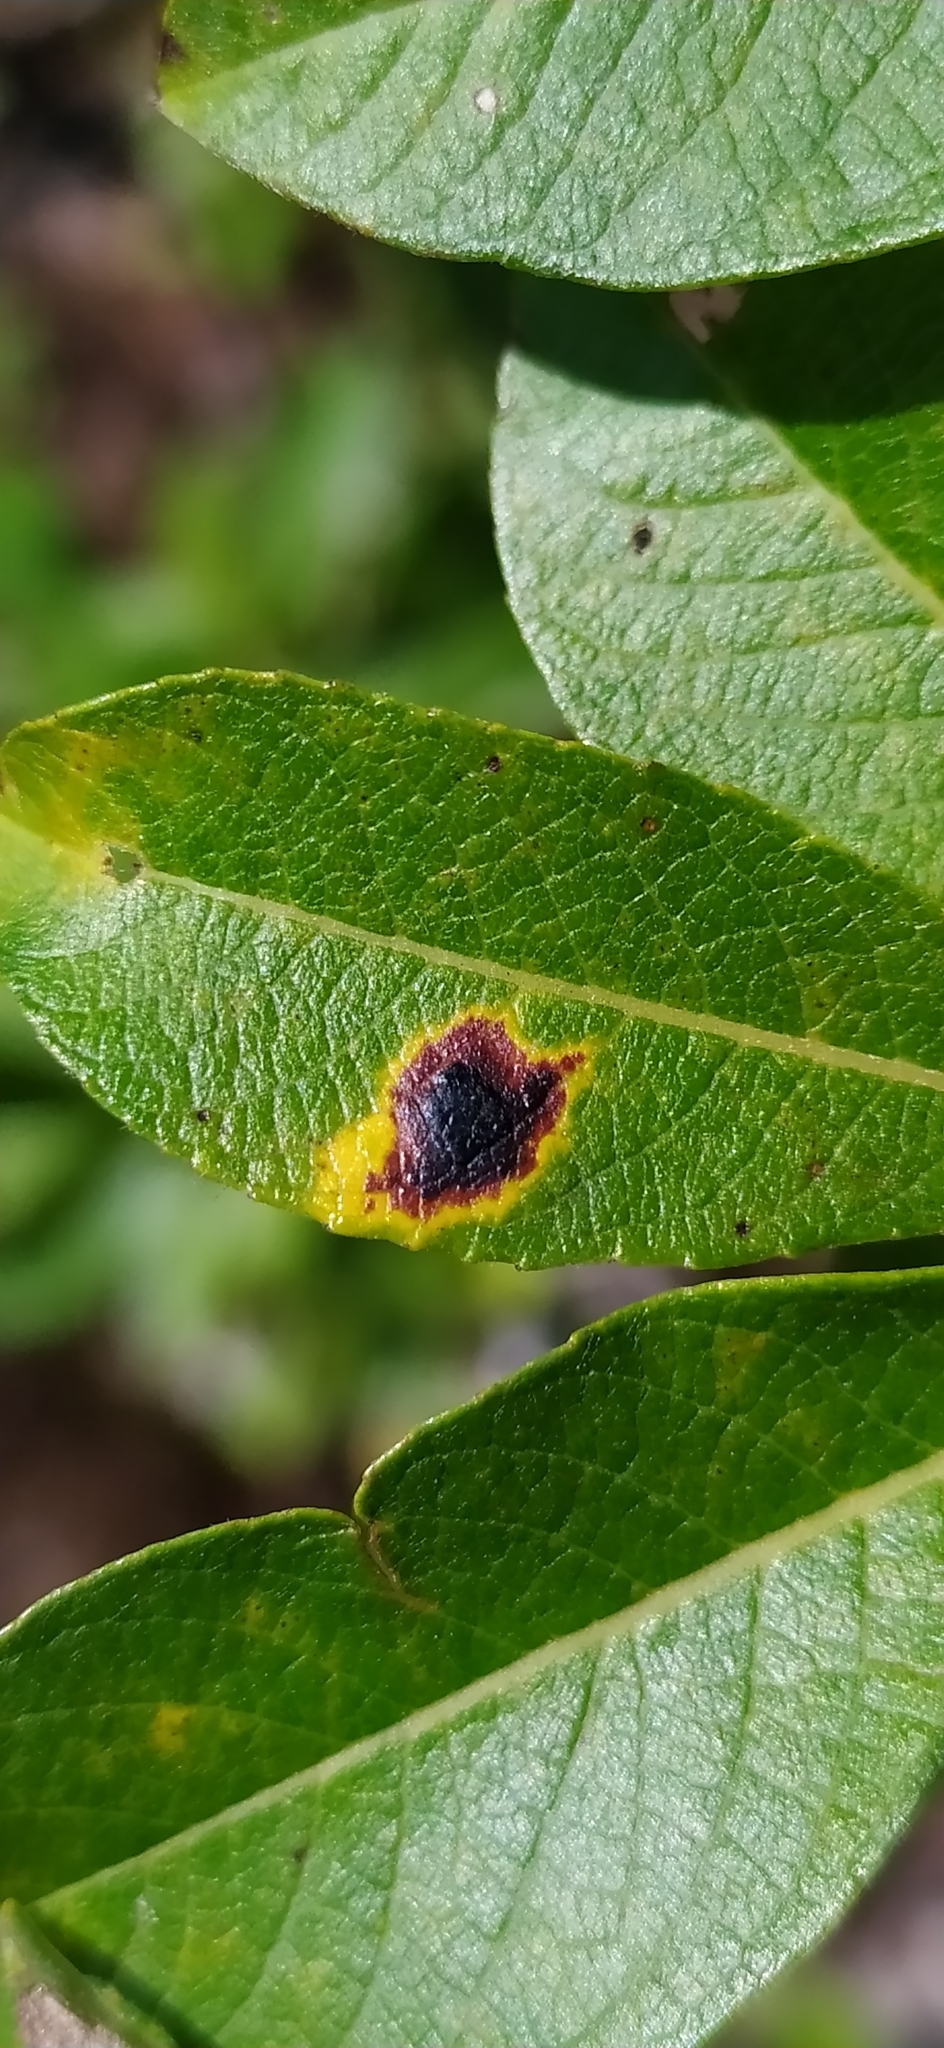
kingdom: Fungi
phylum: Ascomycota
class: Leotiomycetes
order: Rhytismatales
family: Rhytismataceae
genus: Rhytisma
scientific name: Rhytisma salicinum
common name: Willow tarspot
